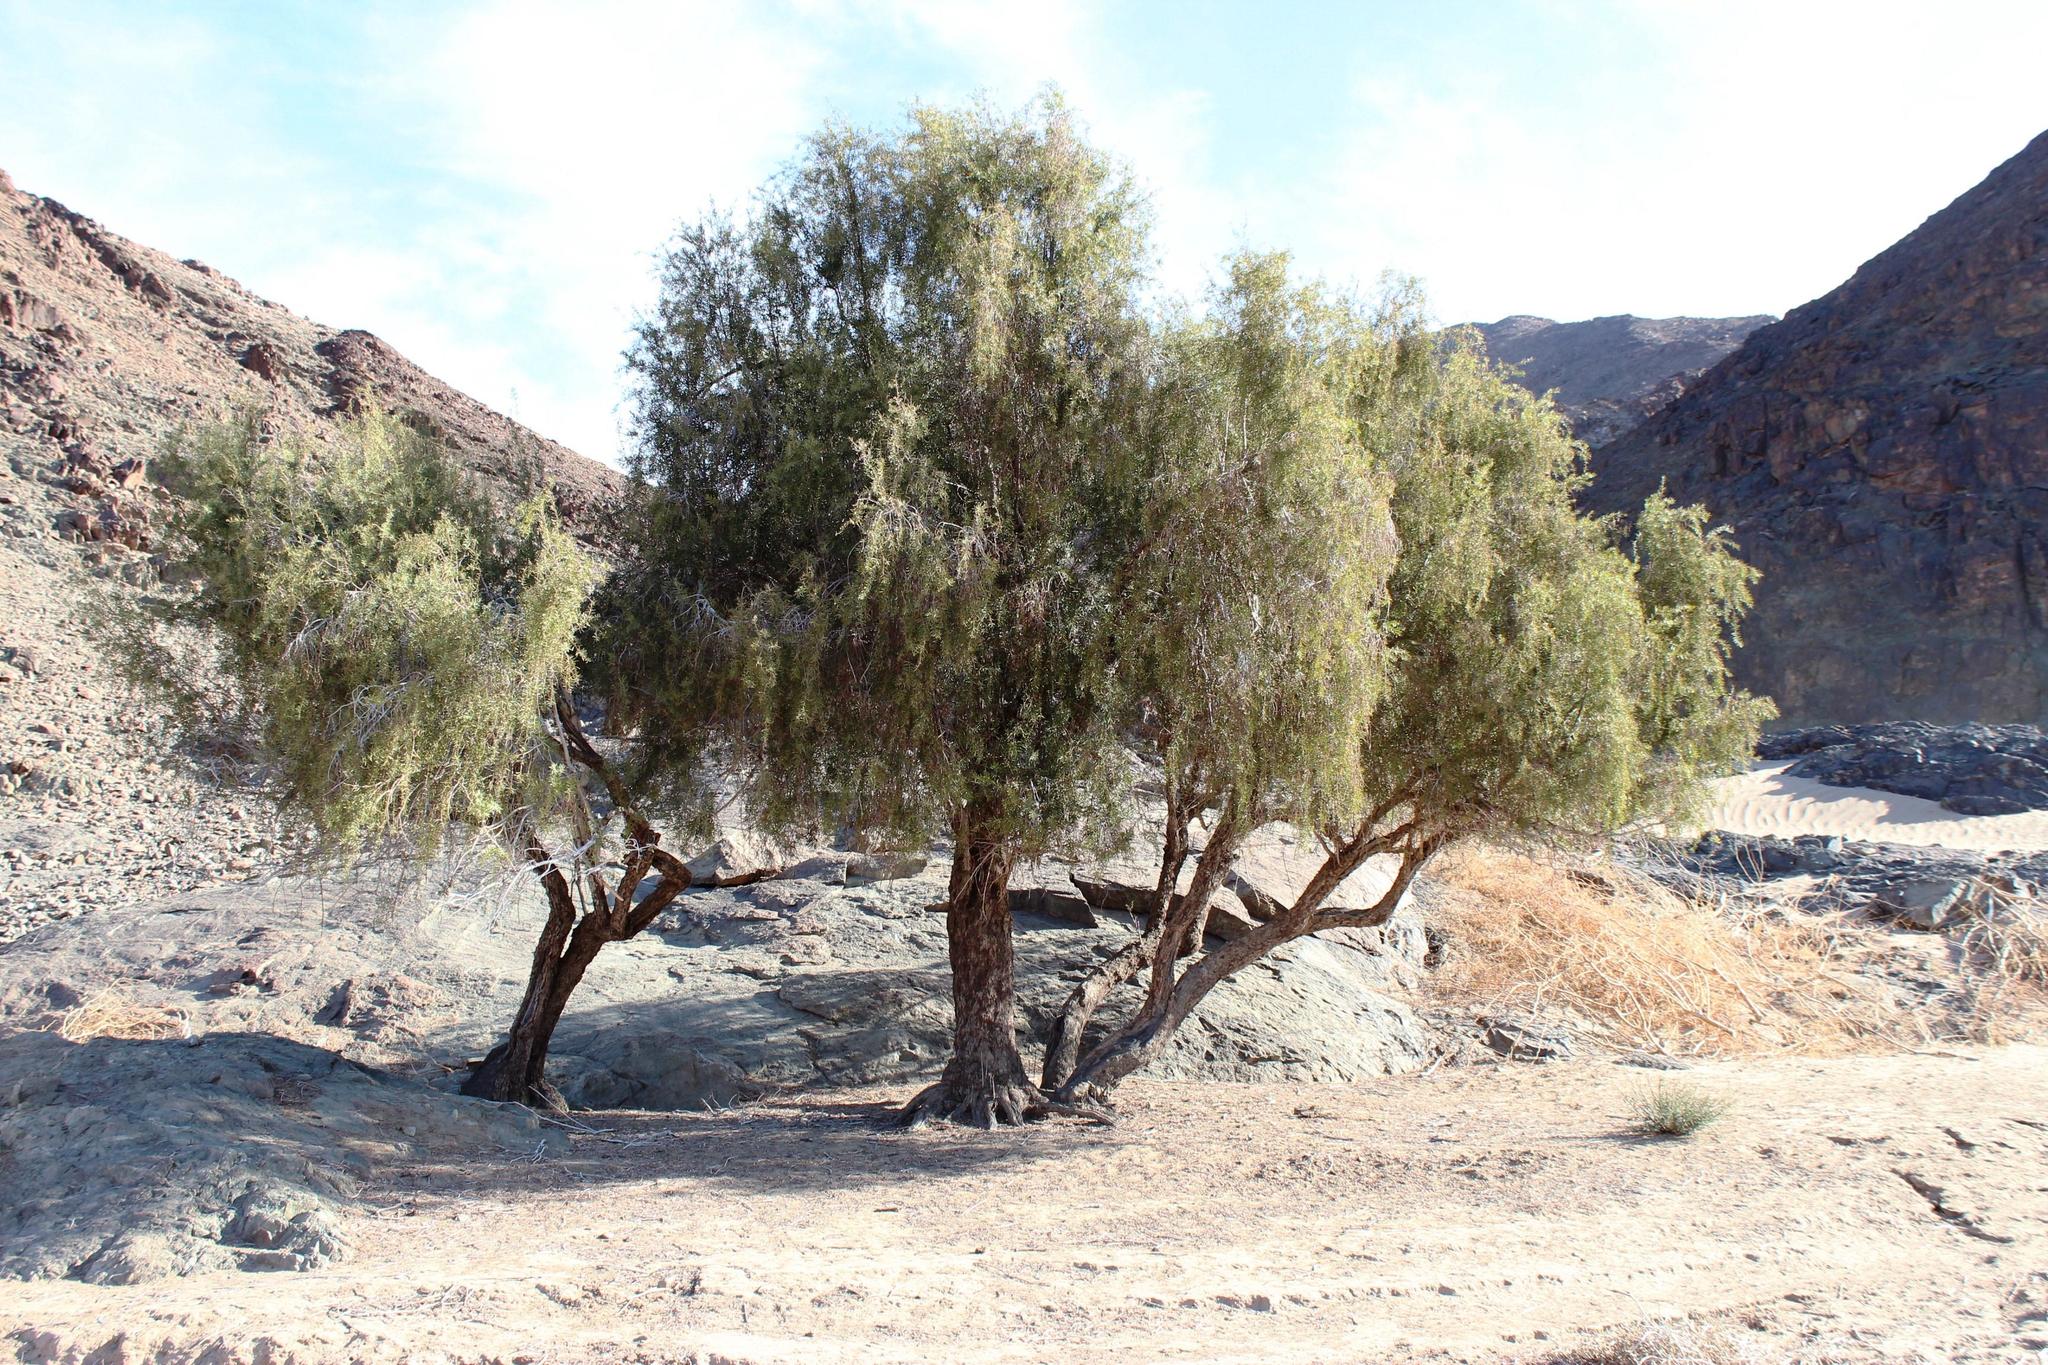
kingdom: Plantae
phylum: Tracheophyta
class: Magnoliopsida
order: Ericales
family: Ebenaceae
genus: Euclea
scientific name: Euclea pseudebenus
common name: Black ebony
